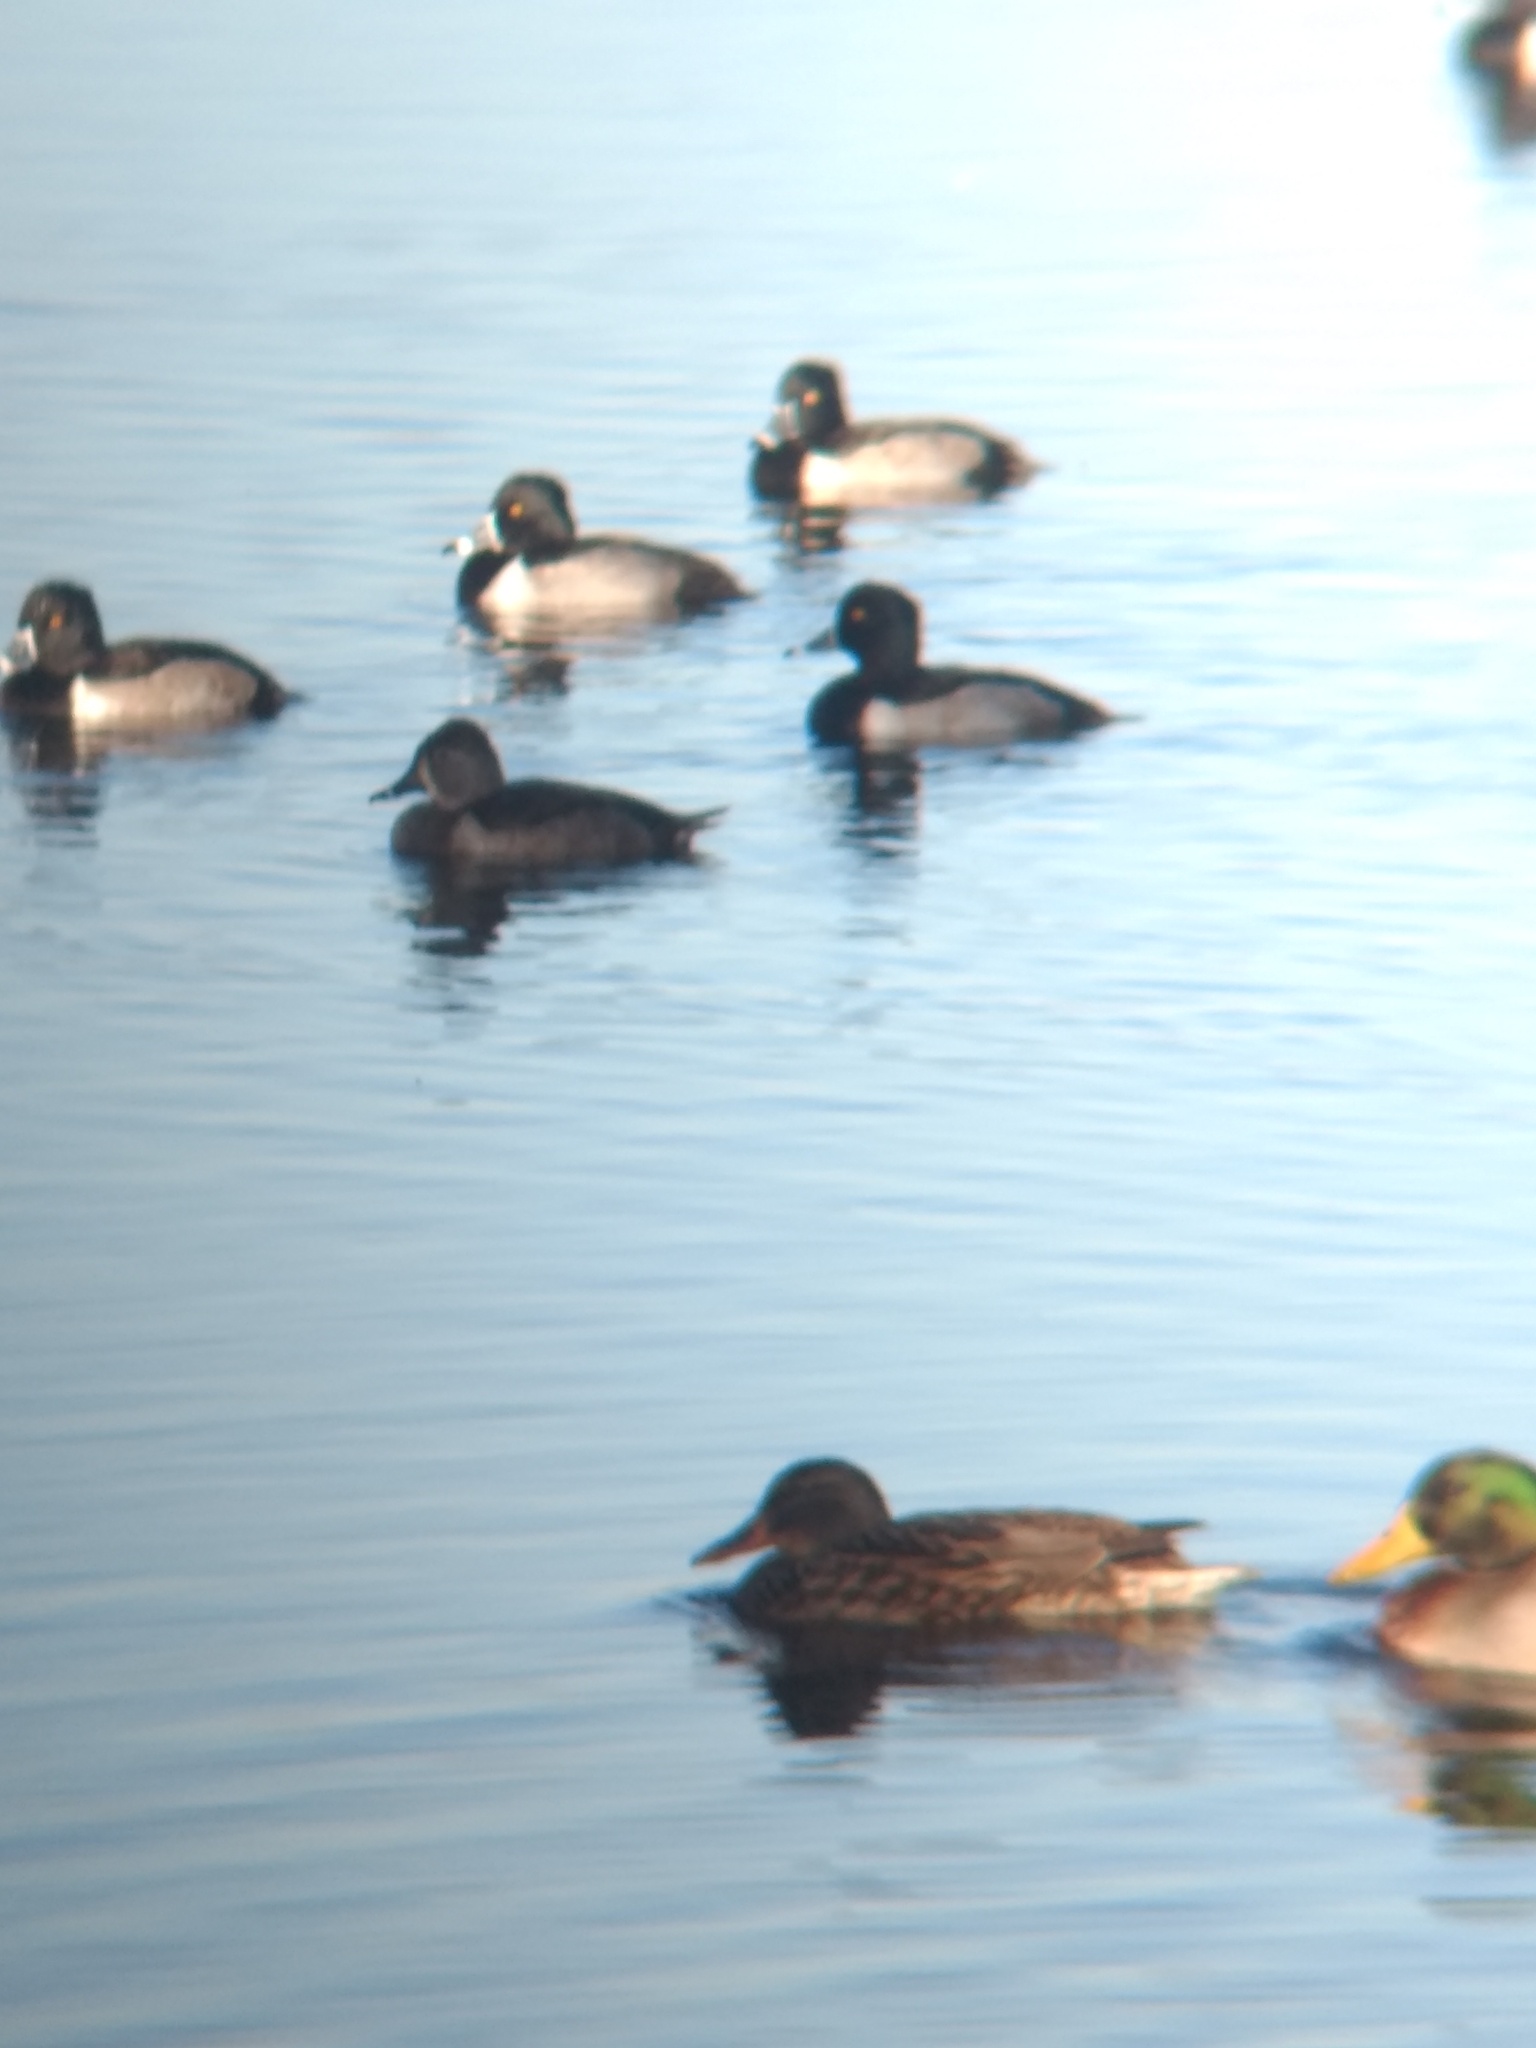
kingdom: Animalia
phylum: Chordata
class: Aves
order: Anseriformes
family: Anatidae
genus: Aythya
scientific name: Aythya collaris
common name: Ring-necked duck
